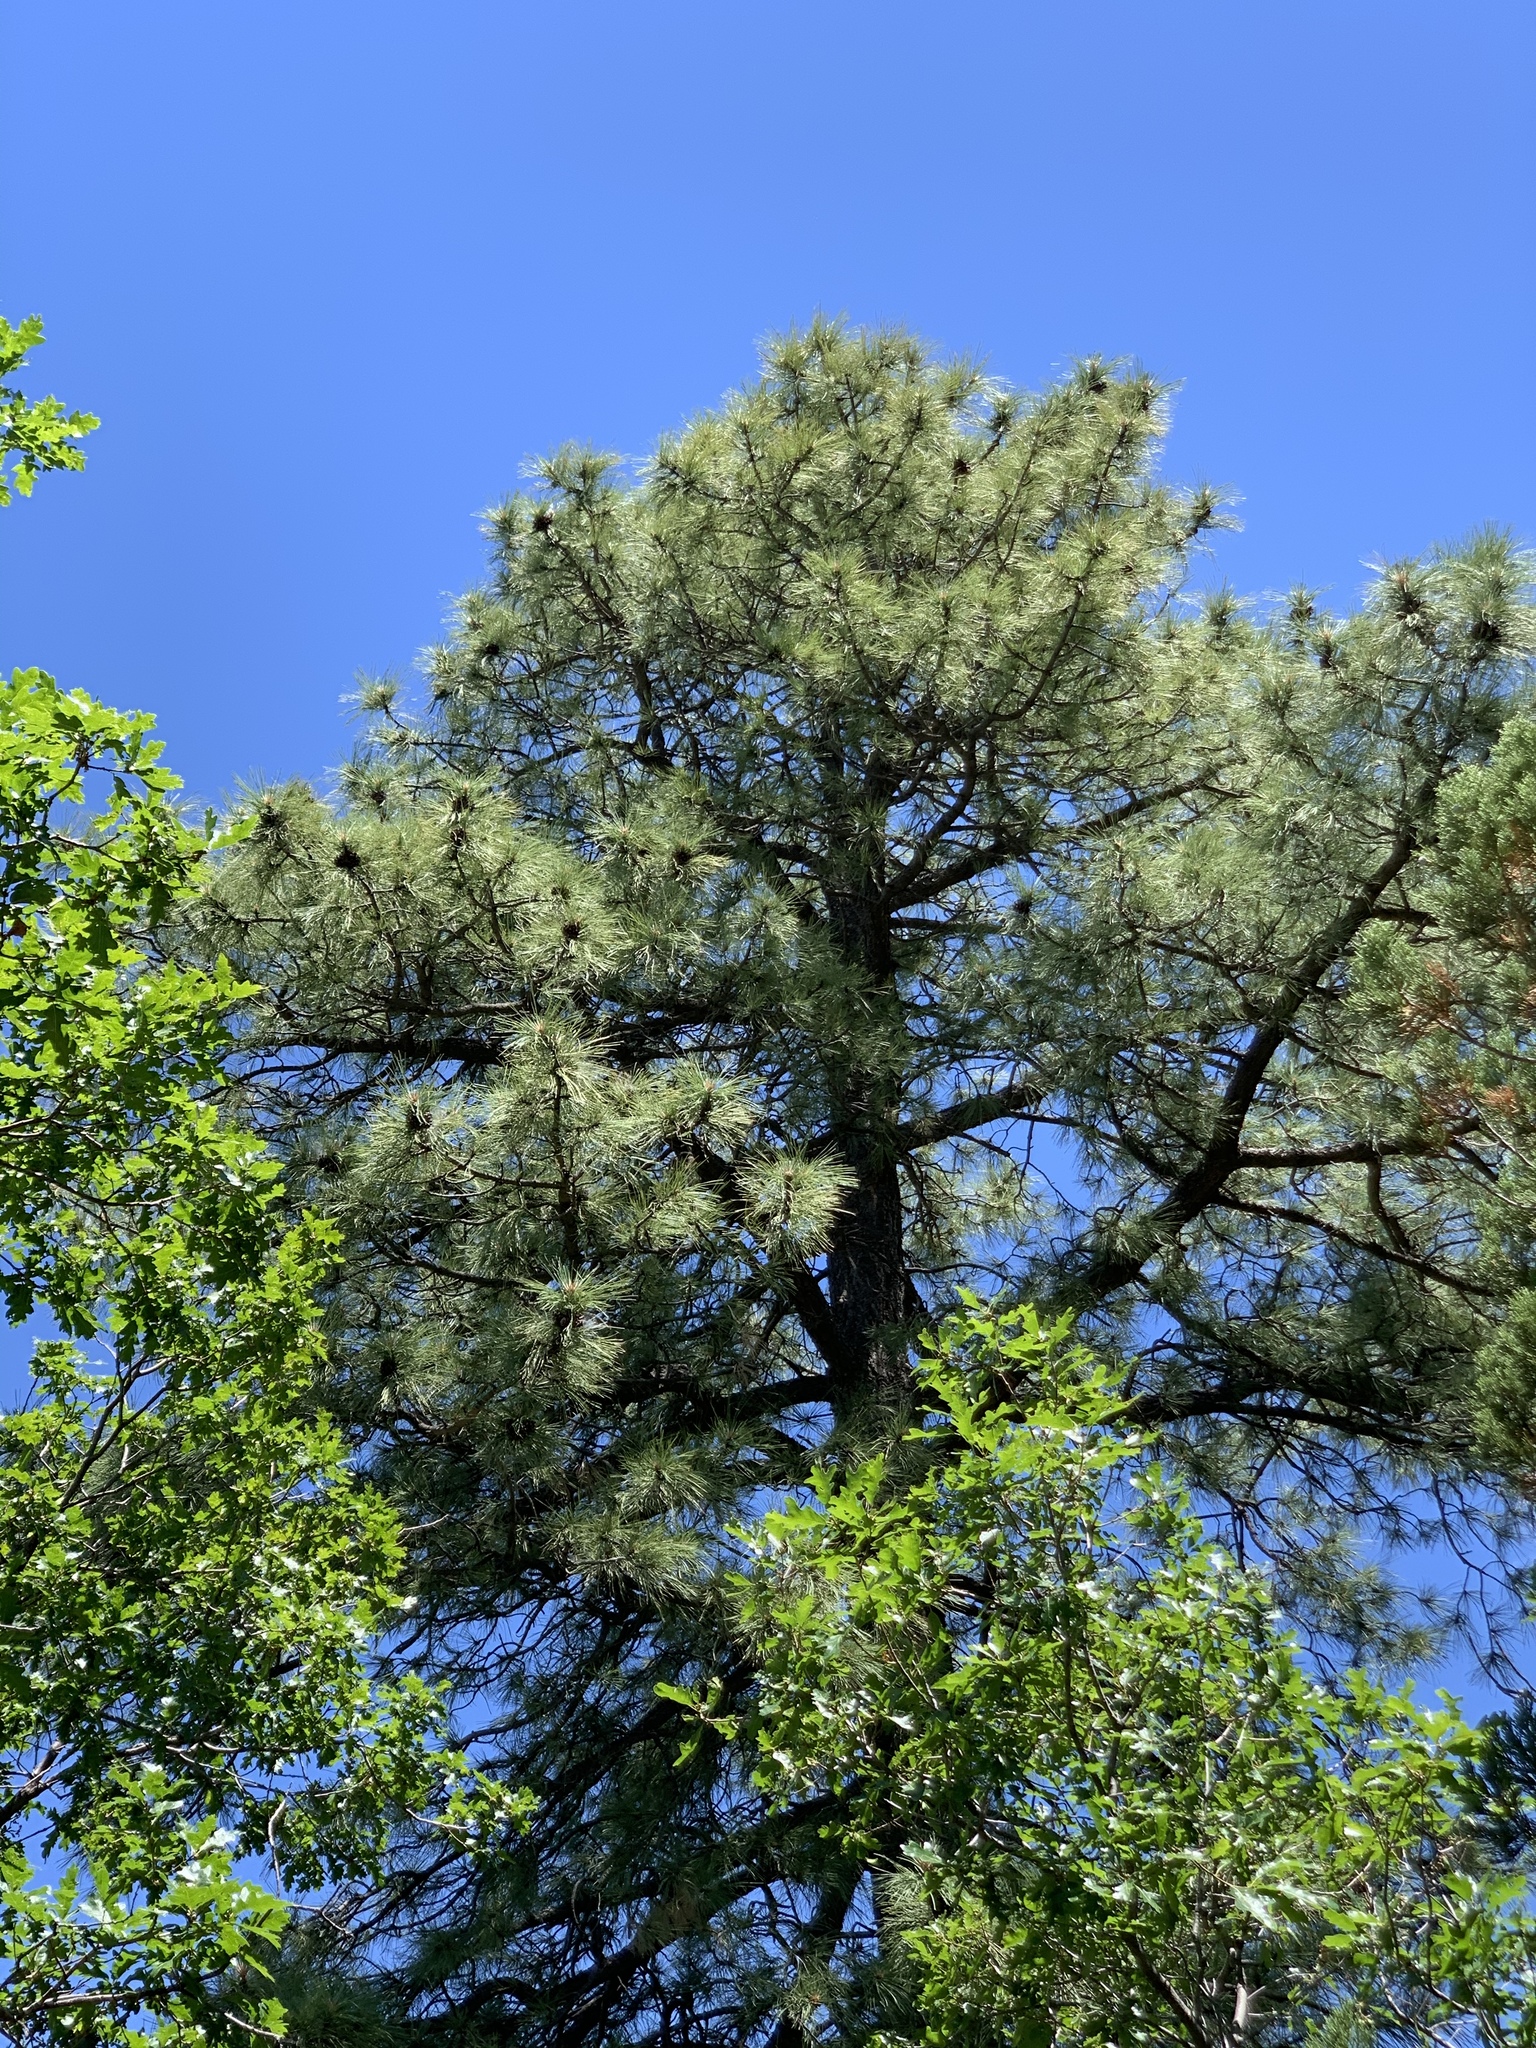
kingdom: Plantae
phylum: Tracheophyta
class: Pinopsida
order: Pinales
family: Pinaceae
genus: Pinus
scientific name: Pinus ponderosa
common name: Western yellow-pine
